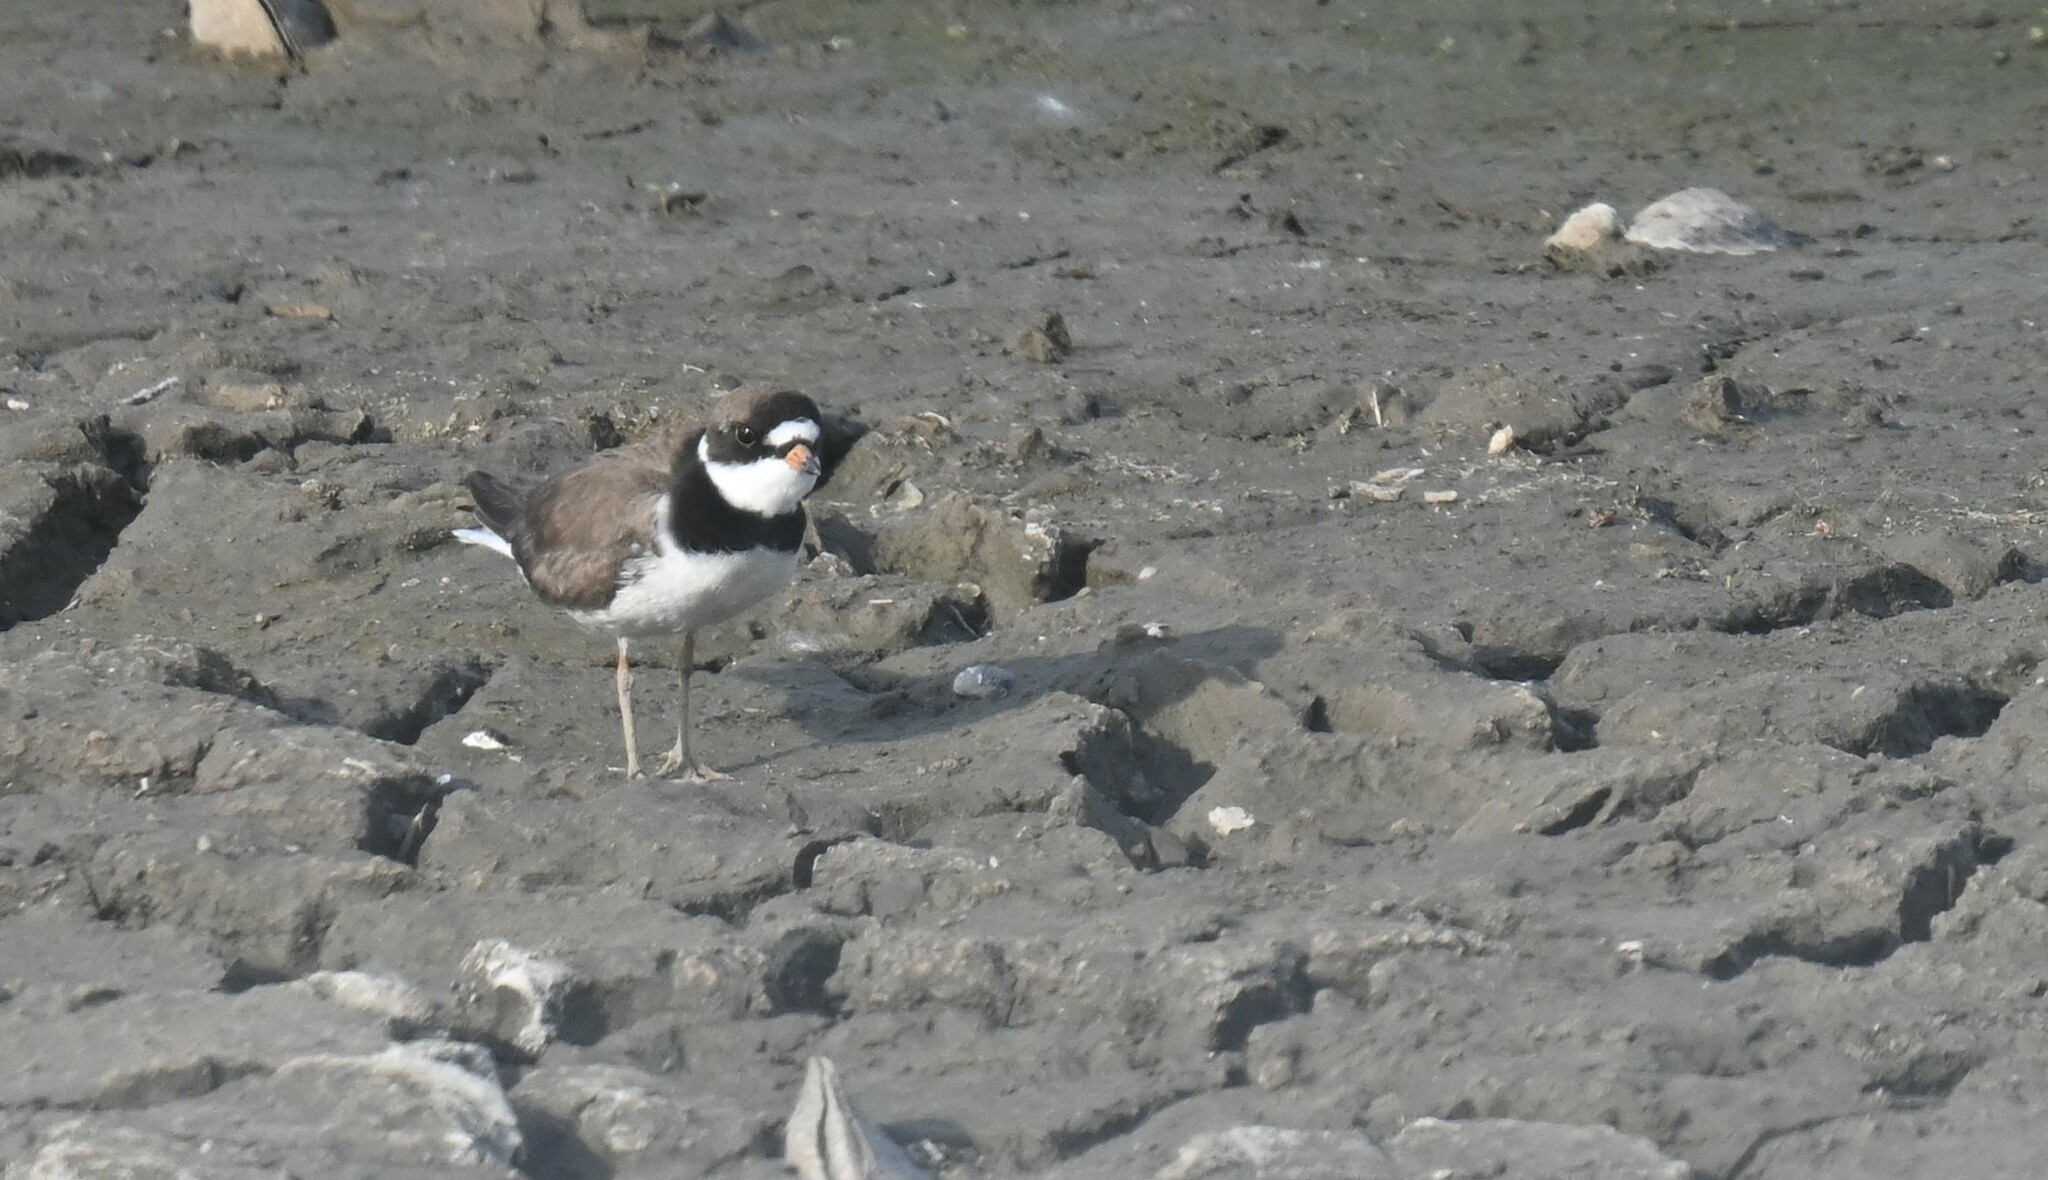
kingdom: Animalia
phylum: Chordata
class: Aves
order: Charadriiformes
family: Charadriidae
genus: Charadrius
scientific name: Charadrius semipalmatus
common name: Semipalmated plover
